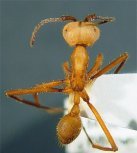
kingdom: Animalia
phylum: Arthropoda
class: Insecta
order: Hymenoptera
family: Formicidae
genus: Eciton
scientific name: Eciton lucanoides
